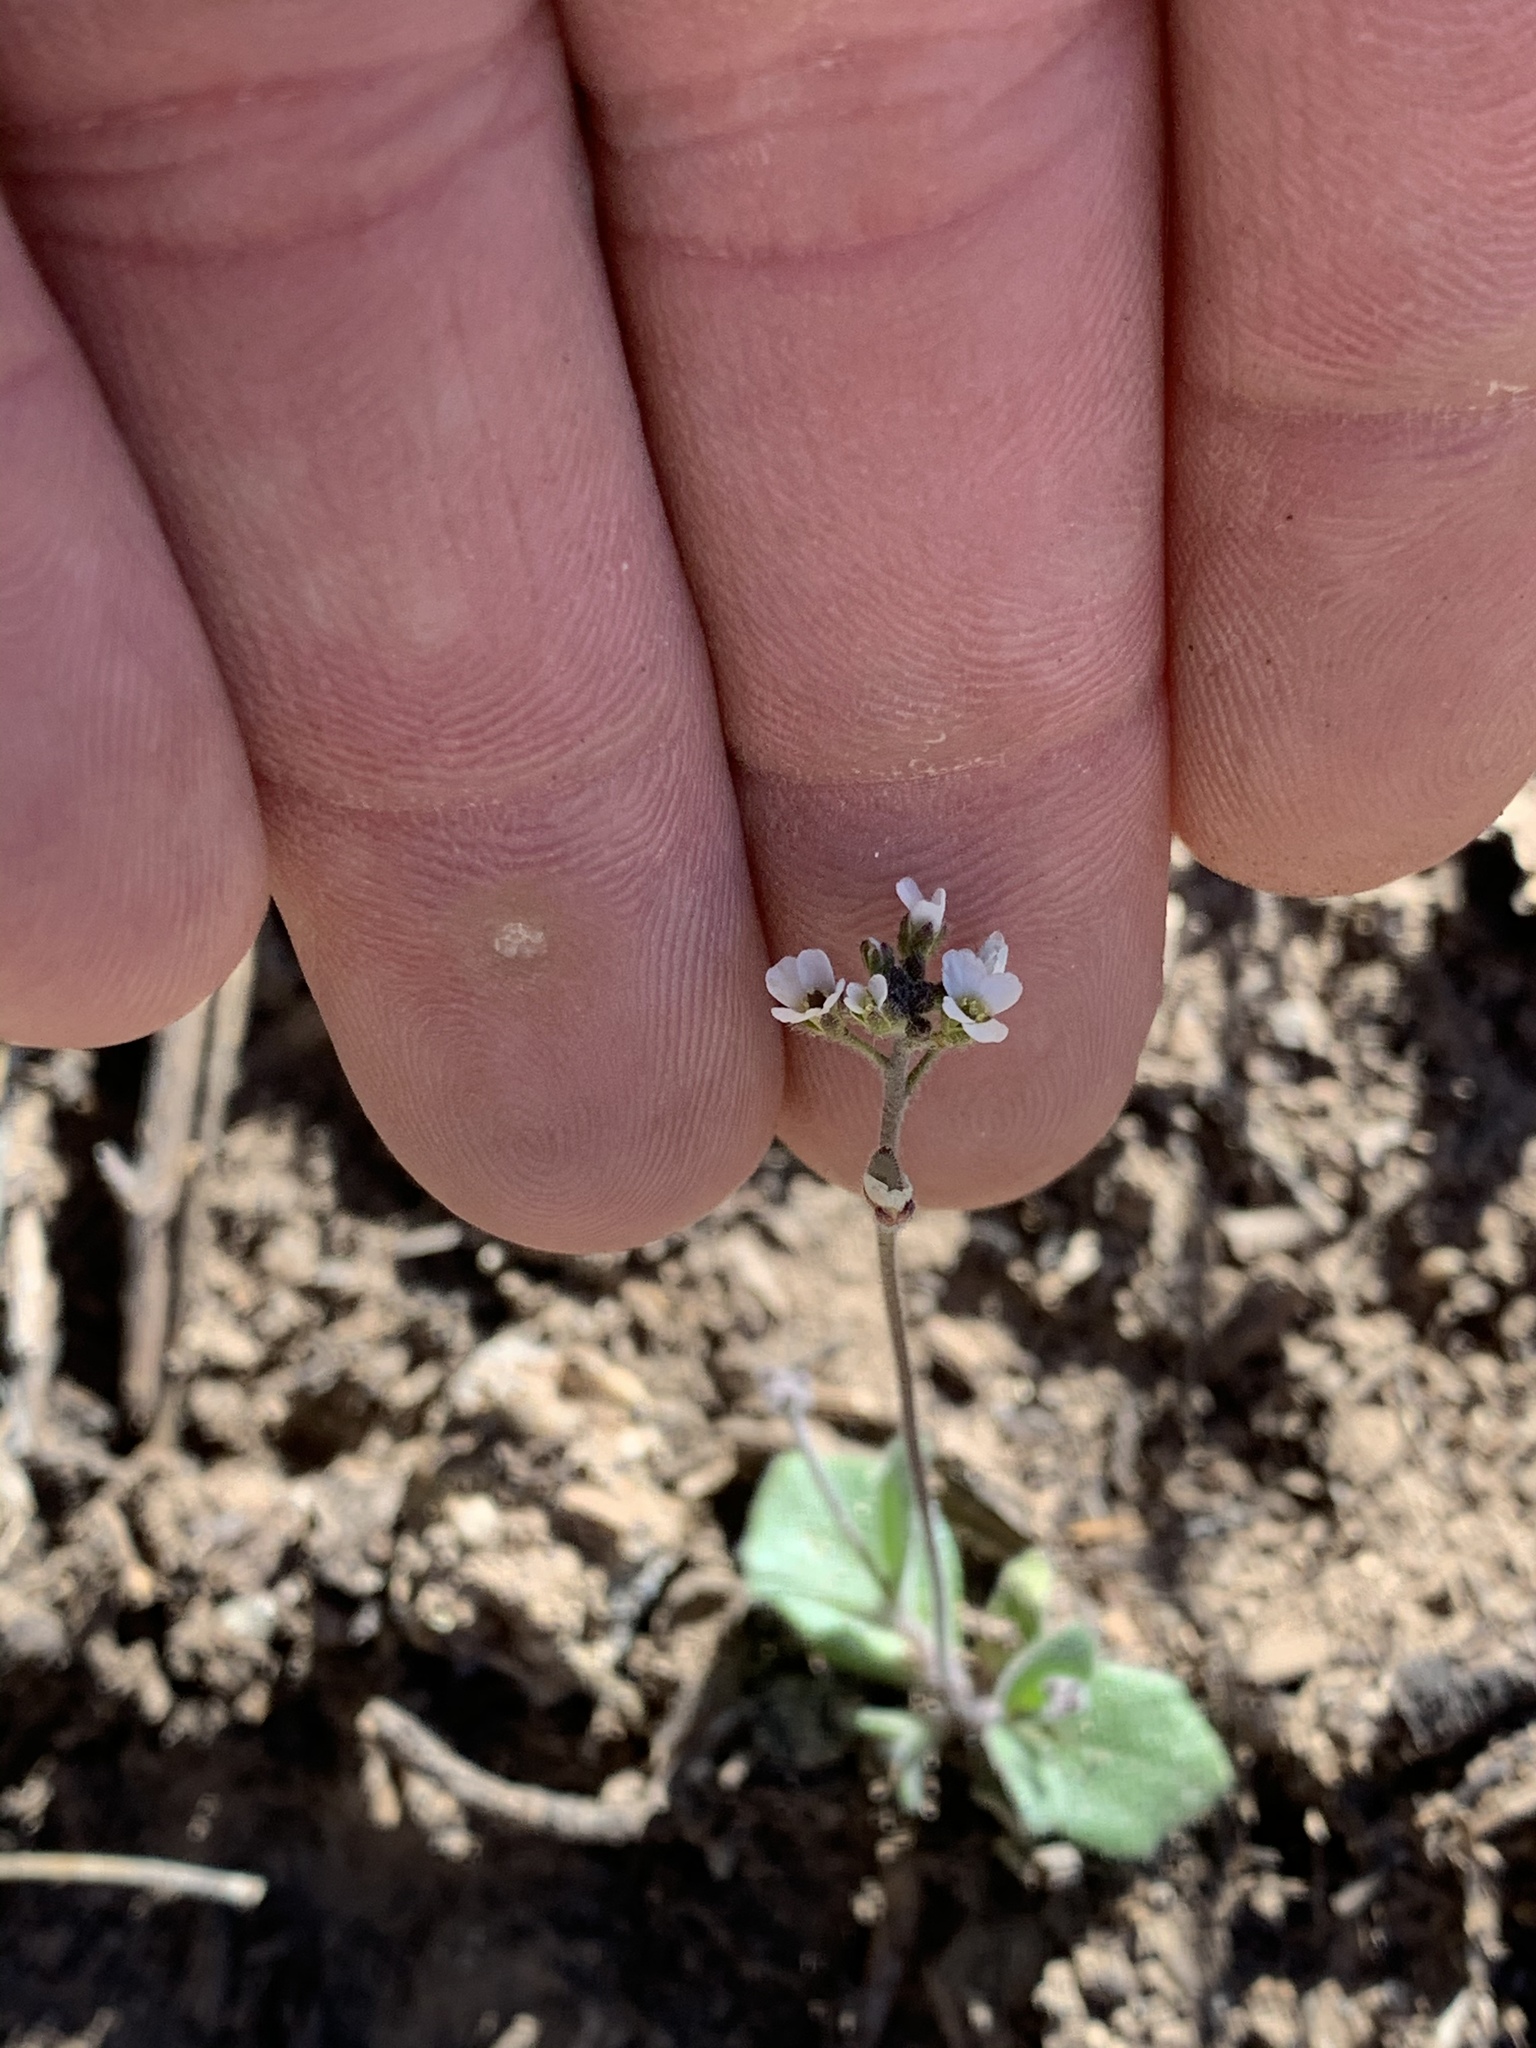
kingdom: Plantae
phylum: Tracheophyta
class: Magnoliopsida
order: Brassicales
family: Brassicaceae
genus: Tomostima
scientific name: Tomostima cuneifolia
